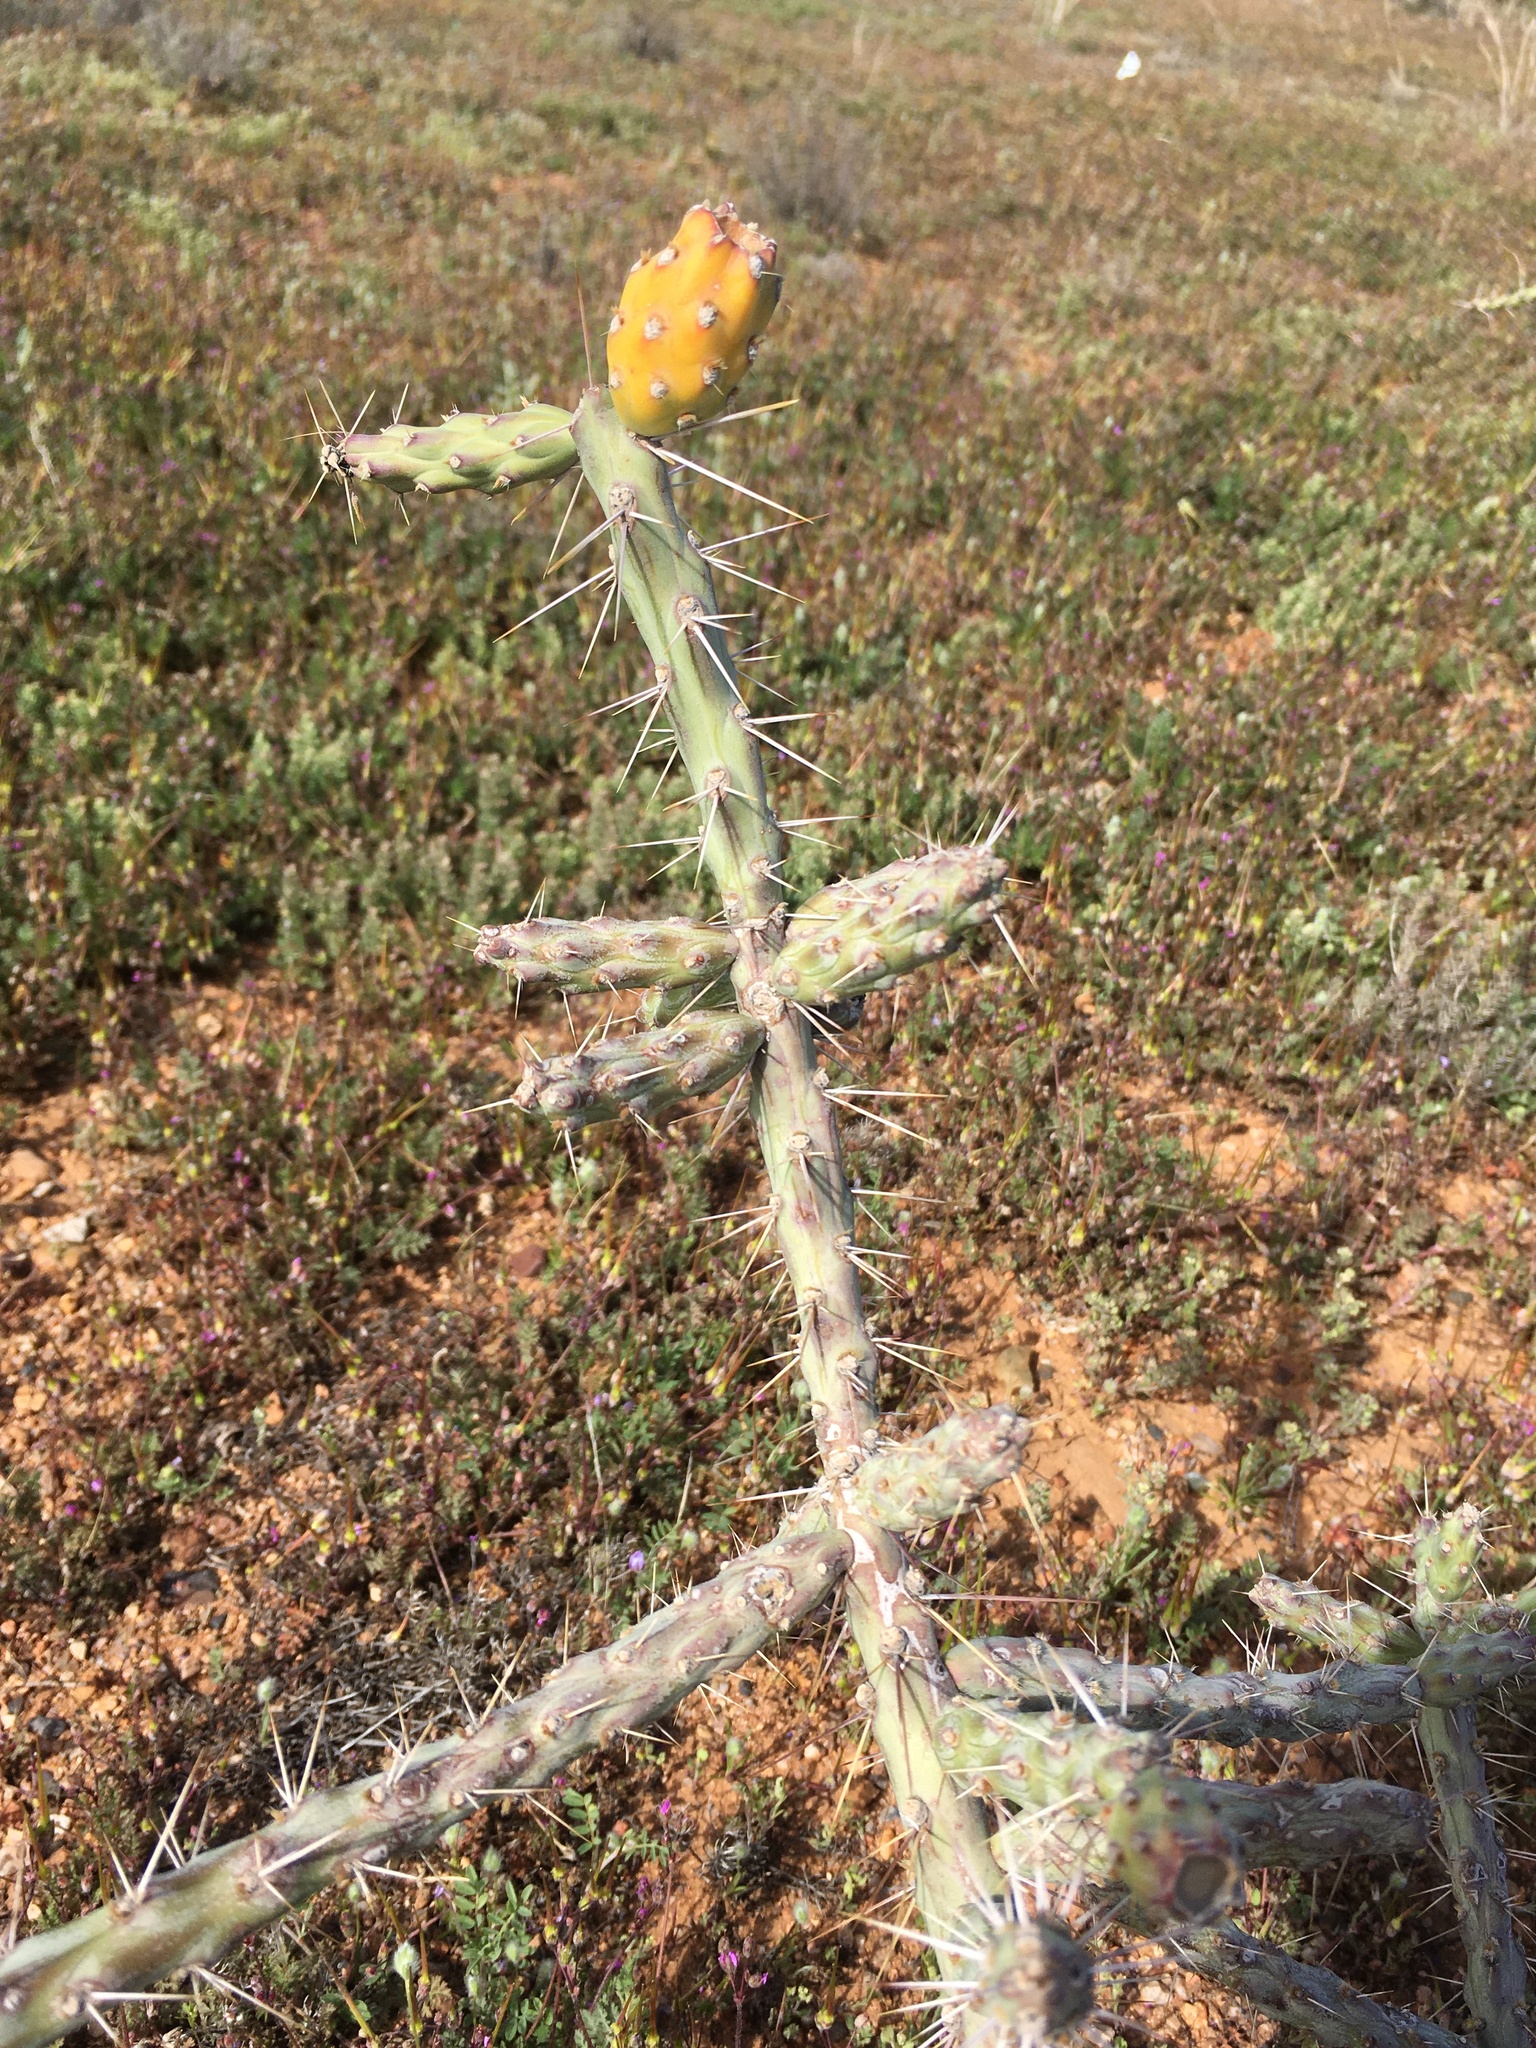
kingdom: Plantae
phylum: Tracheophyta
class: Magnoliopsida
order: Caryophyllales
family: Cactaceae
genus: Cylindropuntia
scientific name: Cylindropuntia kleiniae
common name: Klein's cholla
